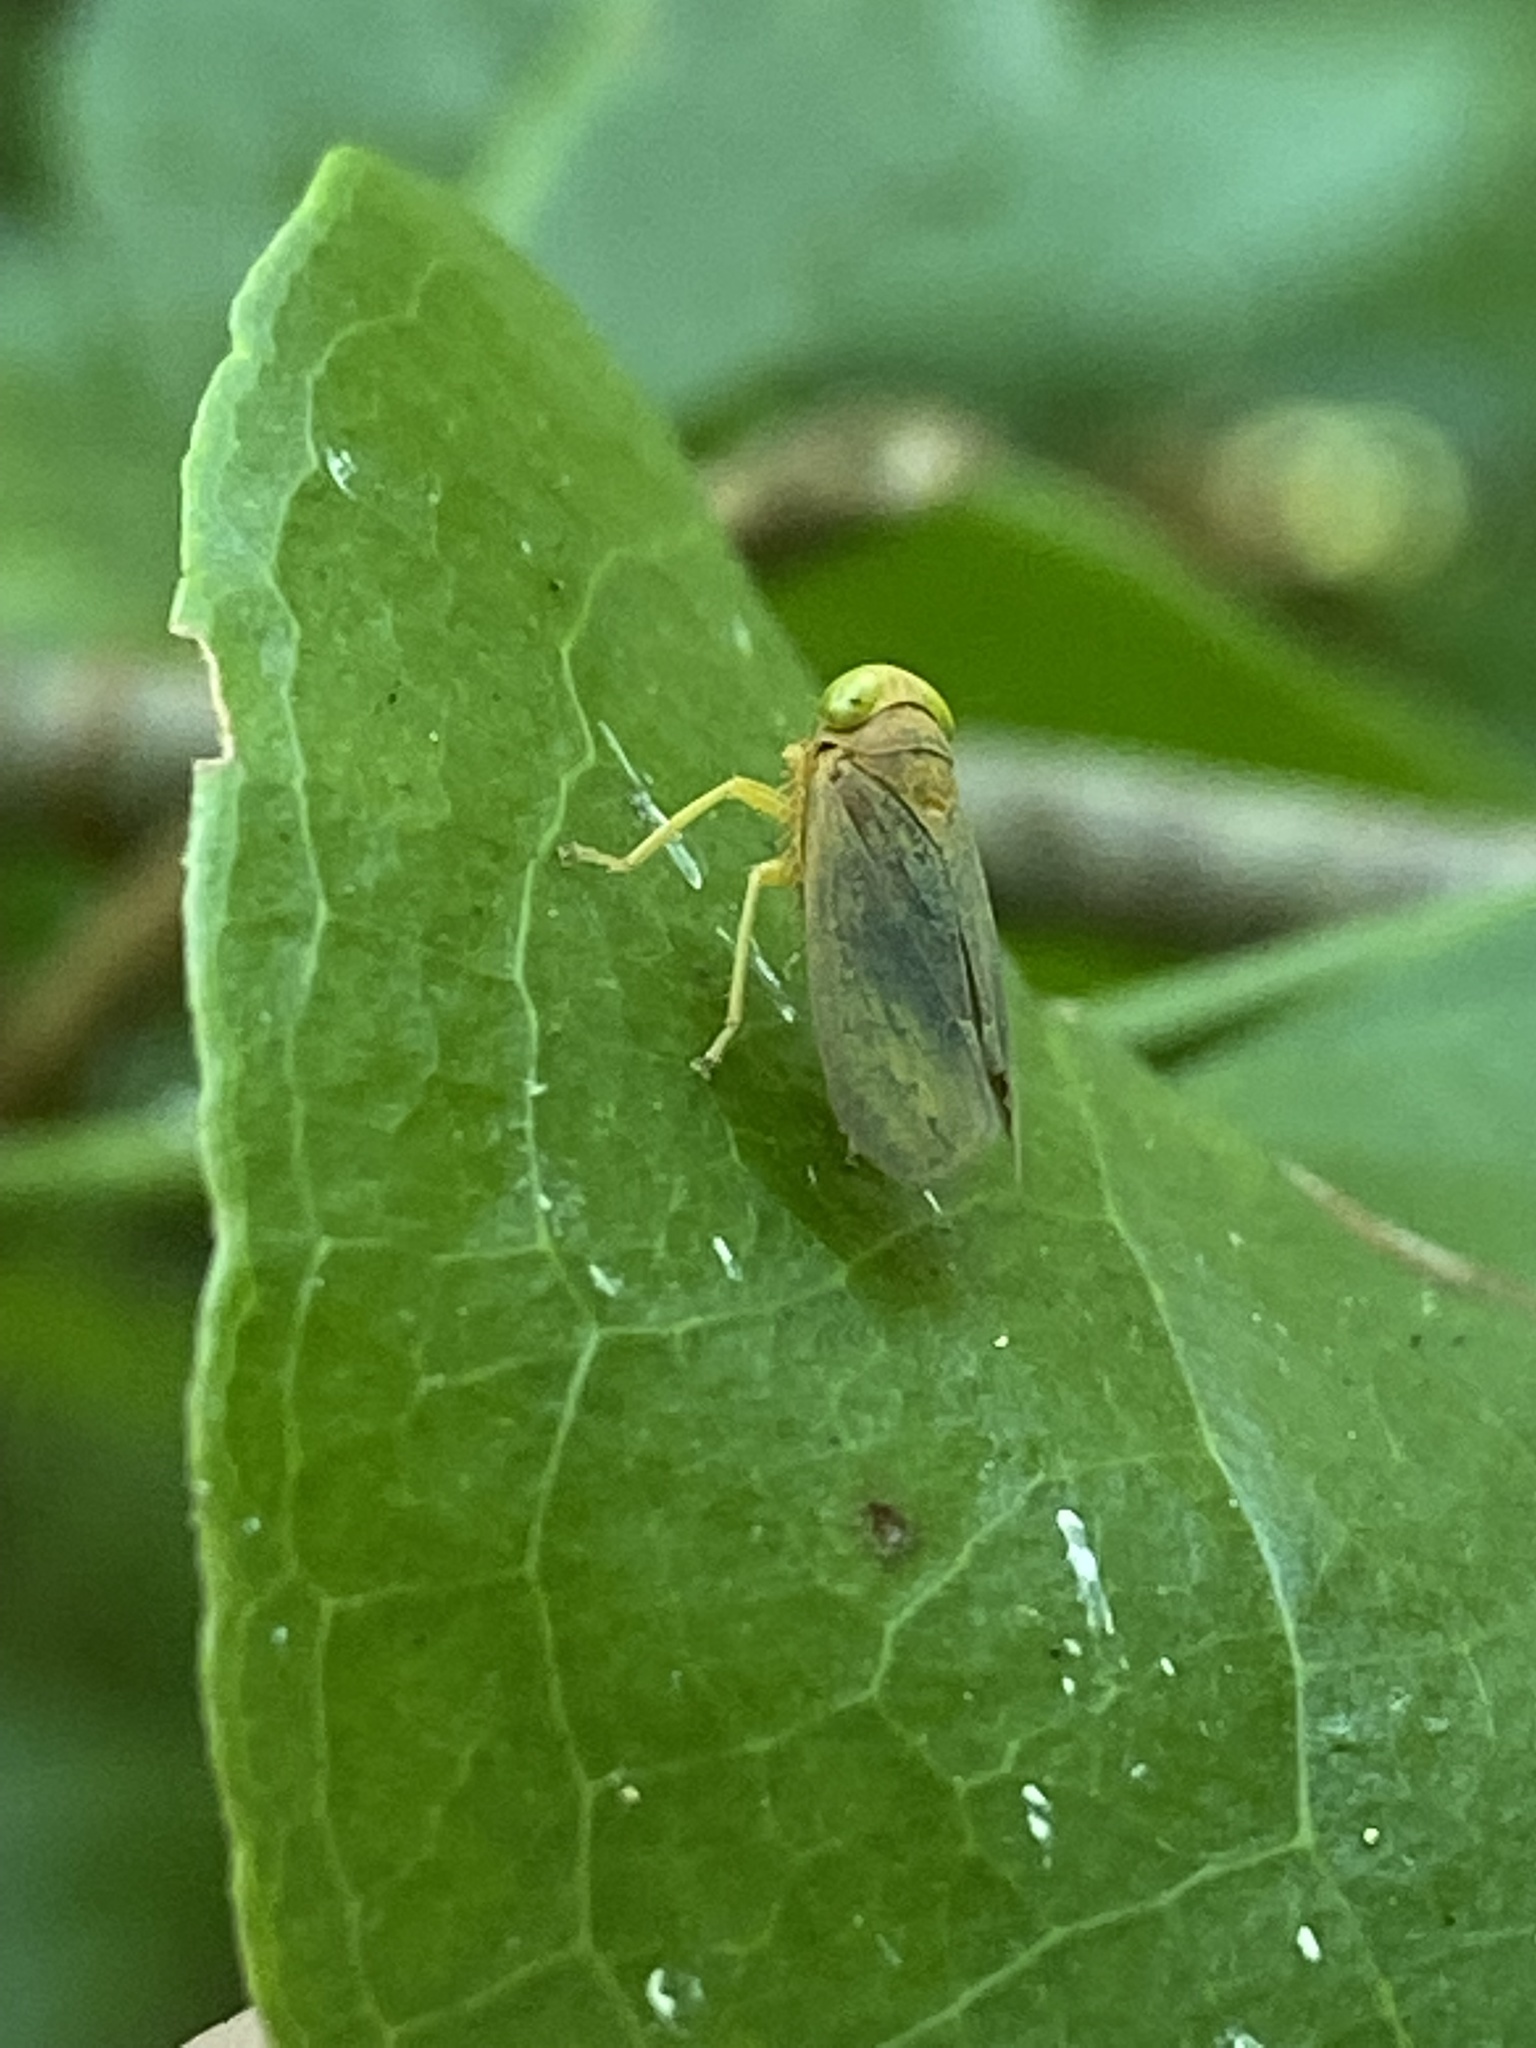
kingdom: Animalia
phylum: Arthropoda
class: Insecta
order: Hemiptera
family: Cicadellidae
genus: Jikradia
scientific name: Jikradia olitoria
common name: Coppery leafhopper
